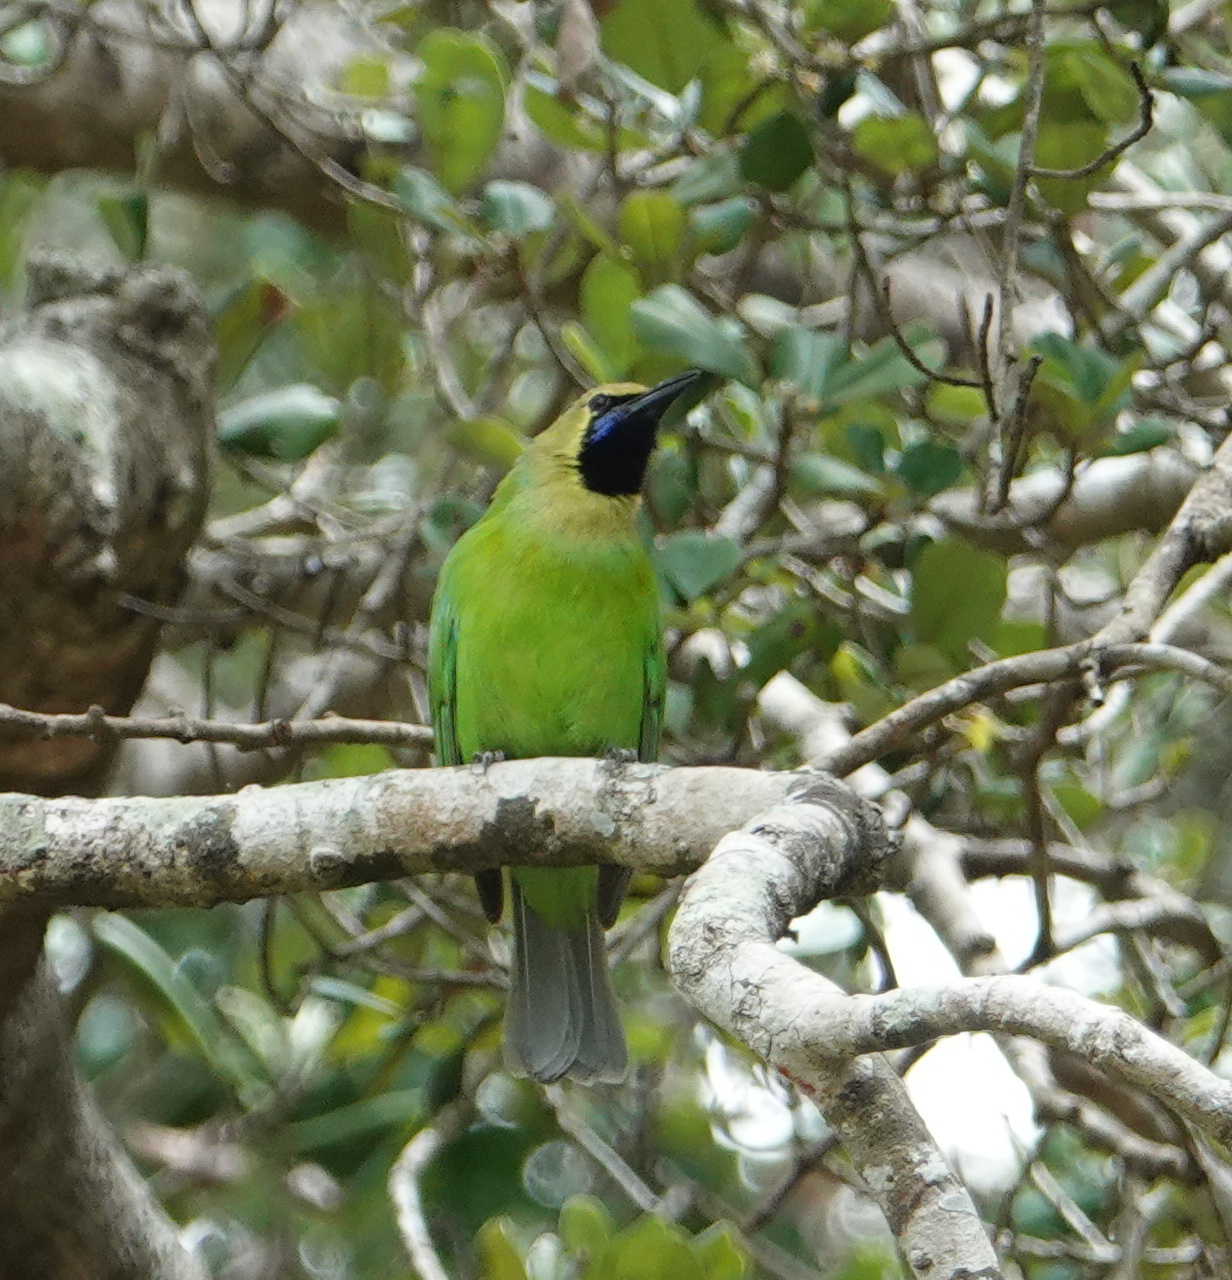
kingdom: Animalia
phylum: Chordata
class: Aves
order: Passeriformes
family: Chloropseidae
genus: Chloropsis
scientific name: Chloropsis jerdoni
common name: Jerdon's leafbird
